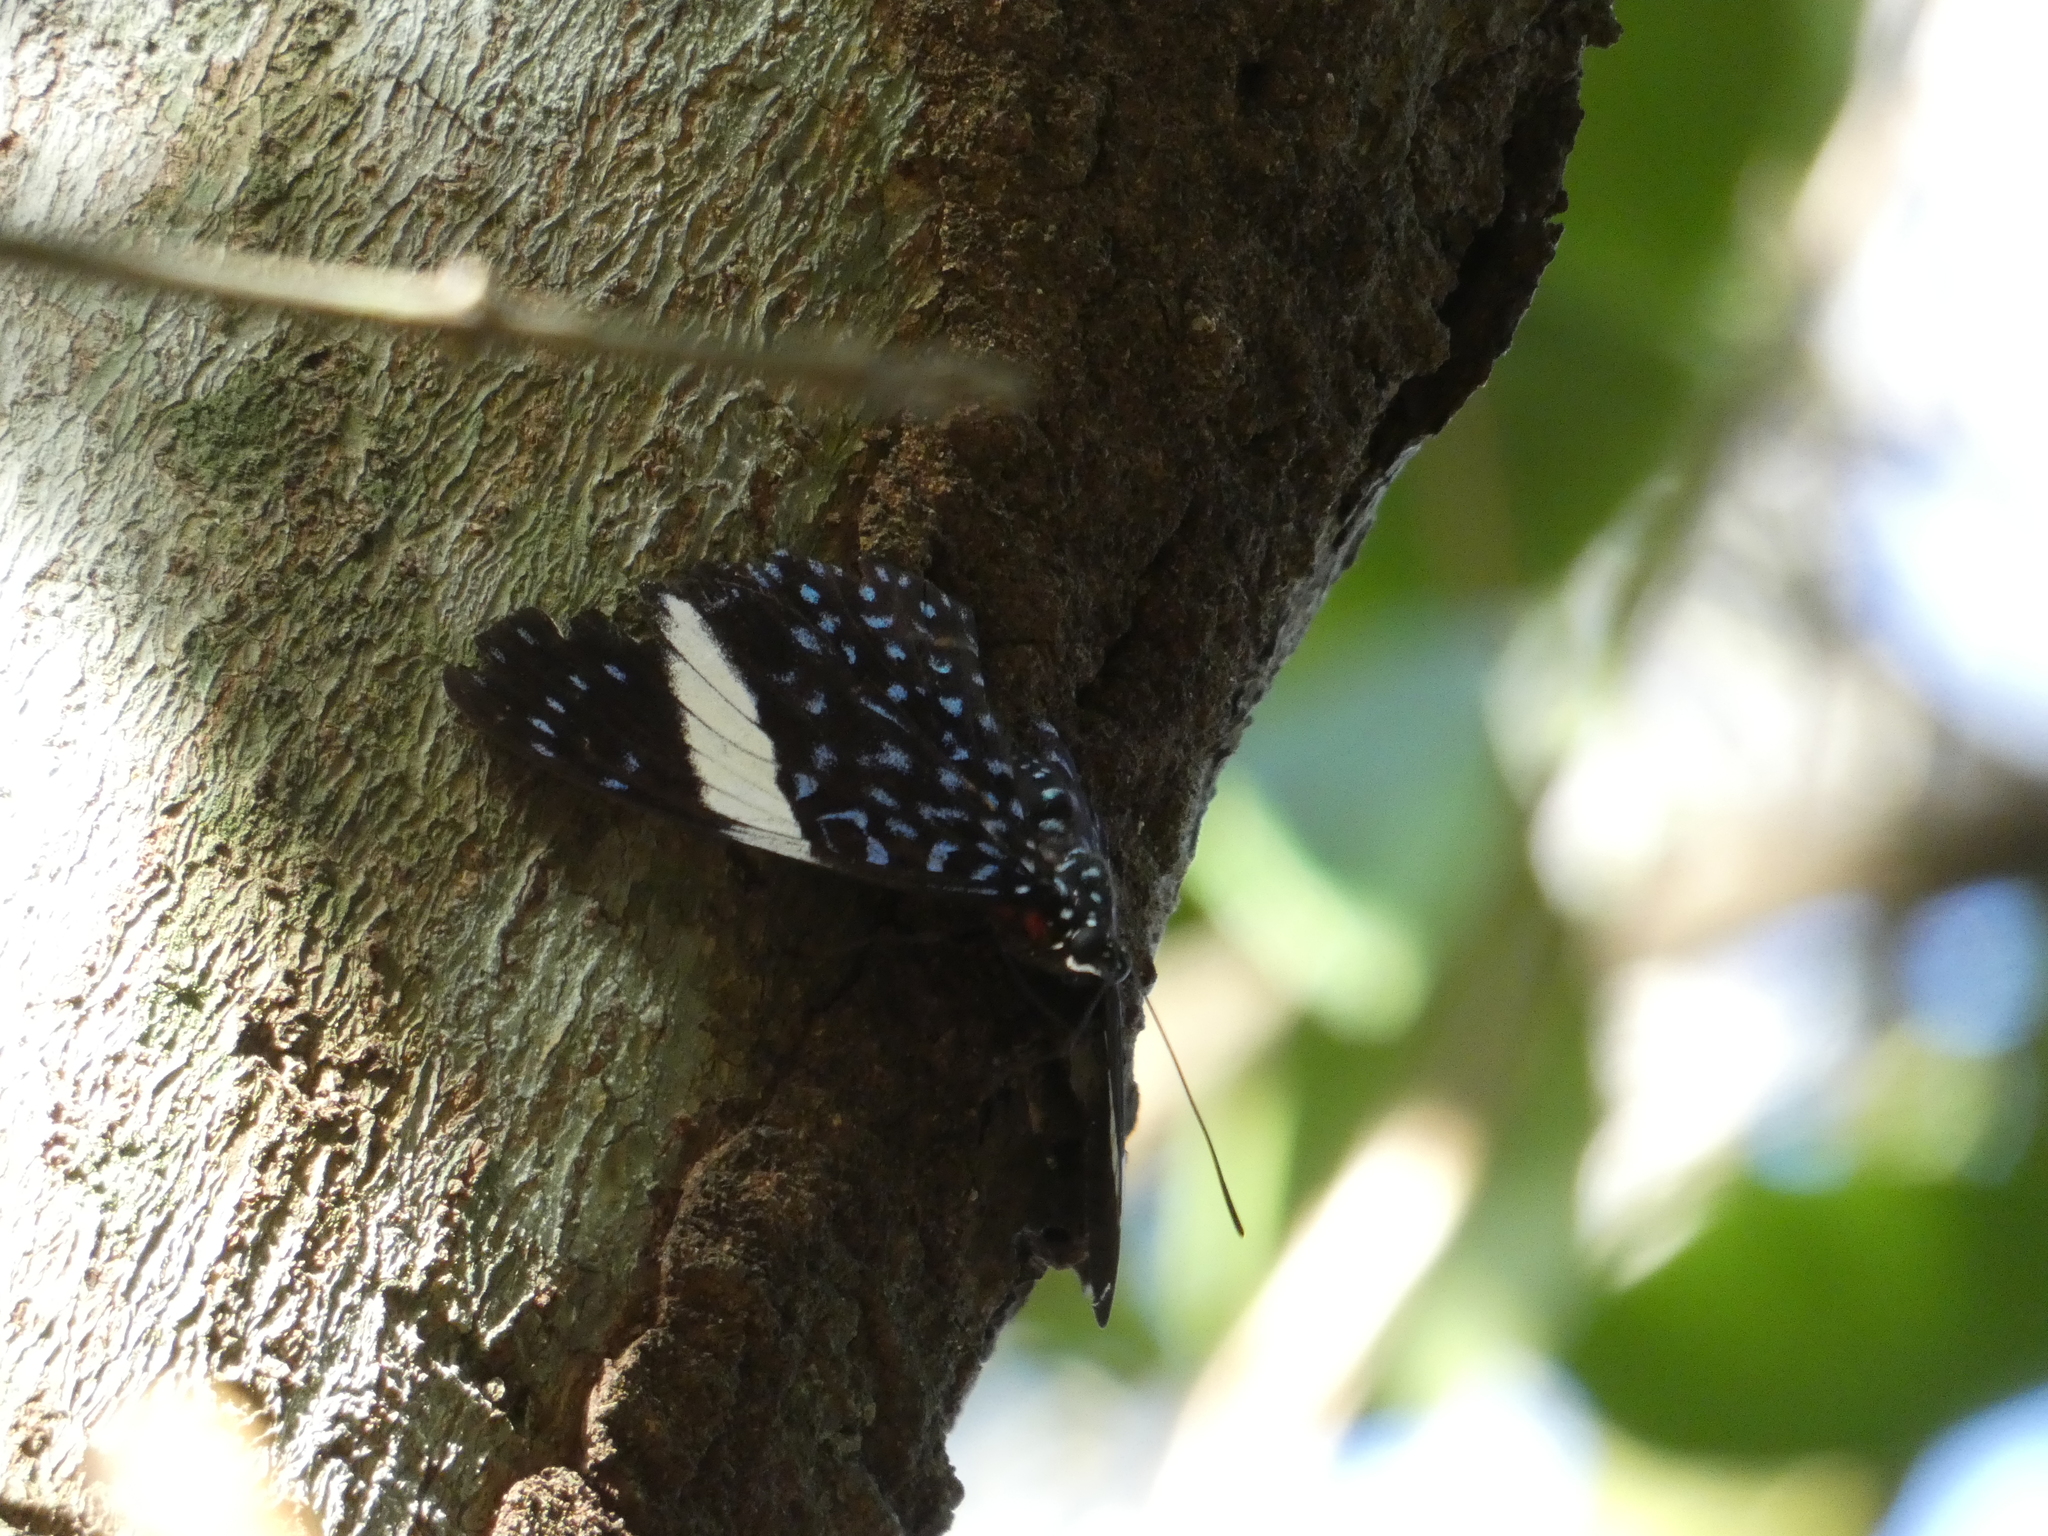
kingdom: Animalia
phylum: Arthropoda
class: Insecta
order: Lepidoptera
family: Nymphalidae
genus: Hamadryas
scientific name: Hamadryas laodamia
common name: Starry night cracker
